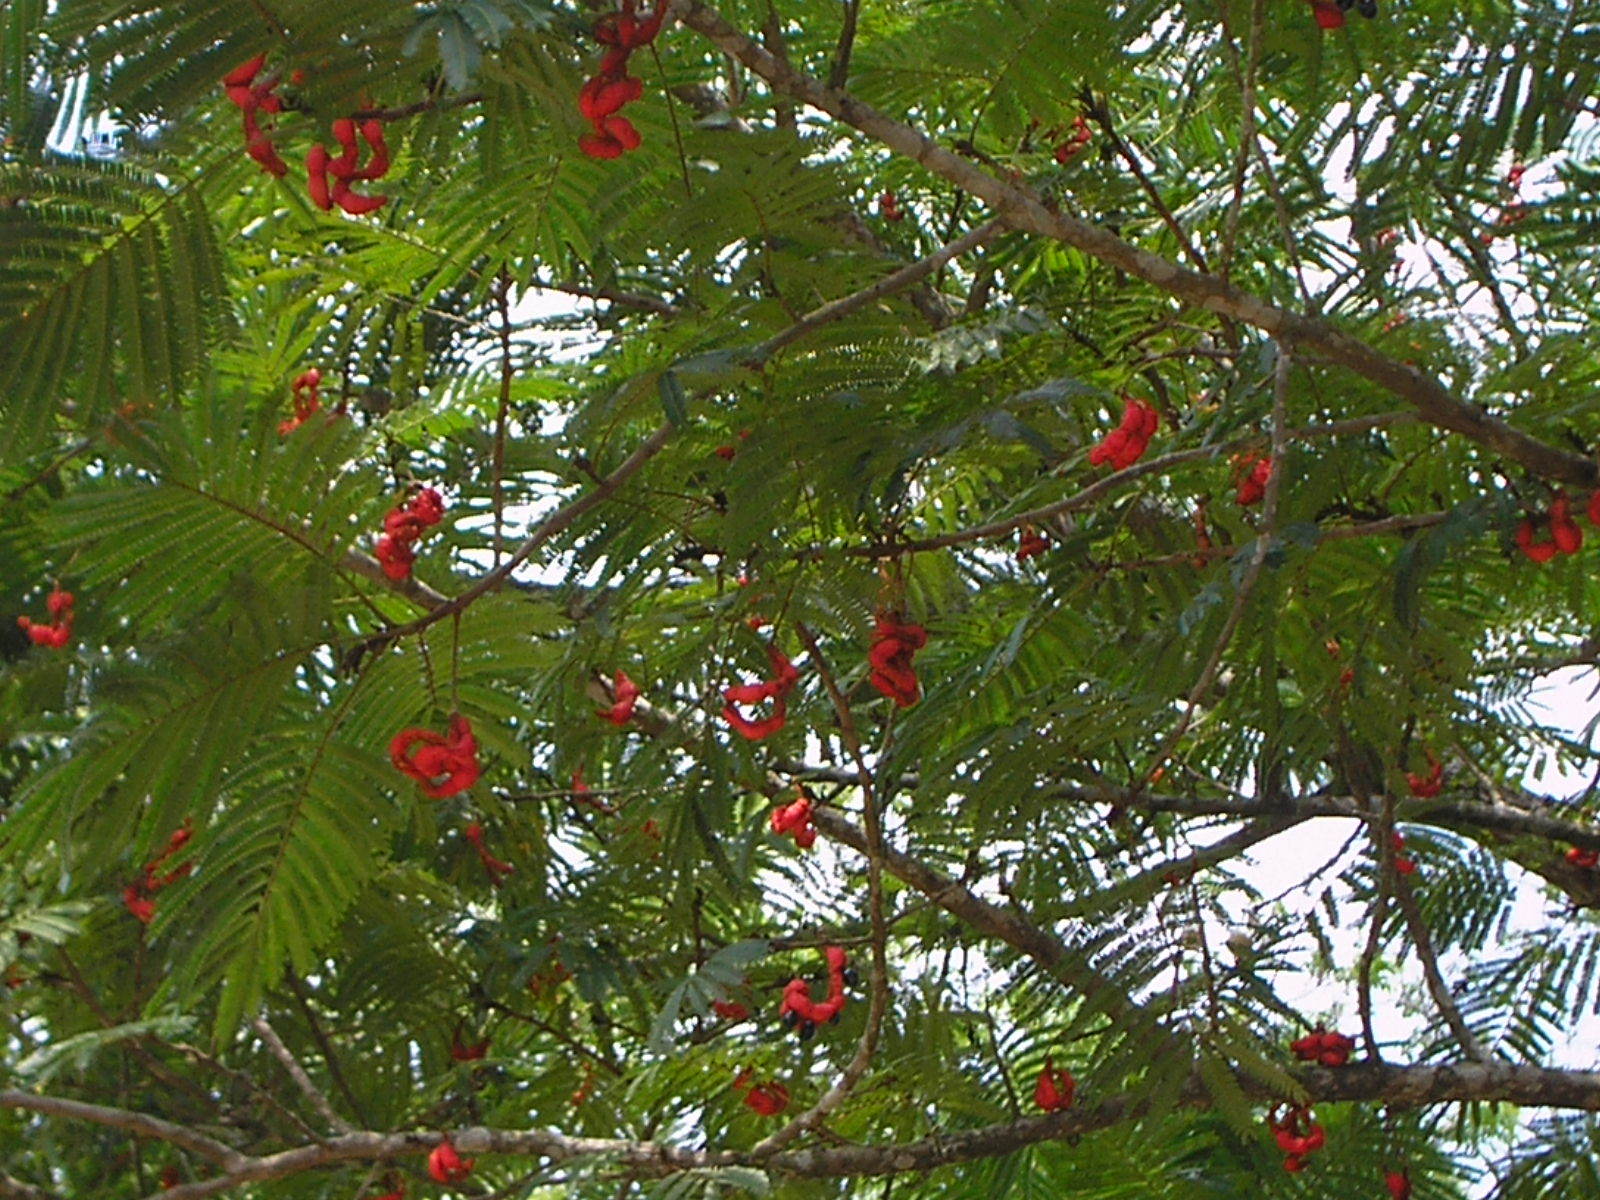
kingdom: Plantae
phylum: Tracheophyta
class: Magnoliopsida
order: Fabales
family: Fabaceae
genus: Cojoba
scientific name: Cojoba arborea
